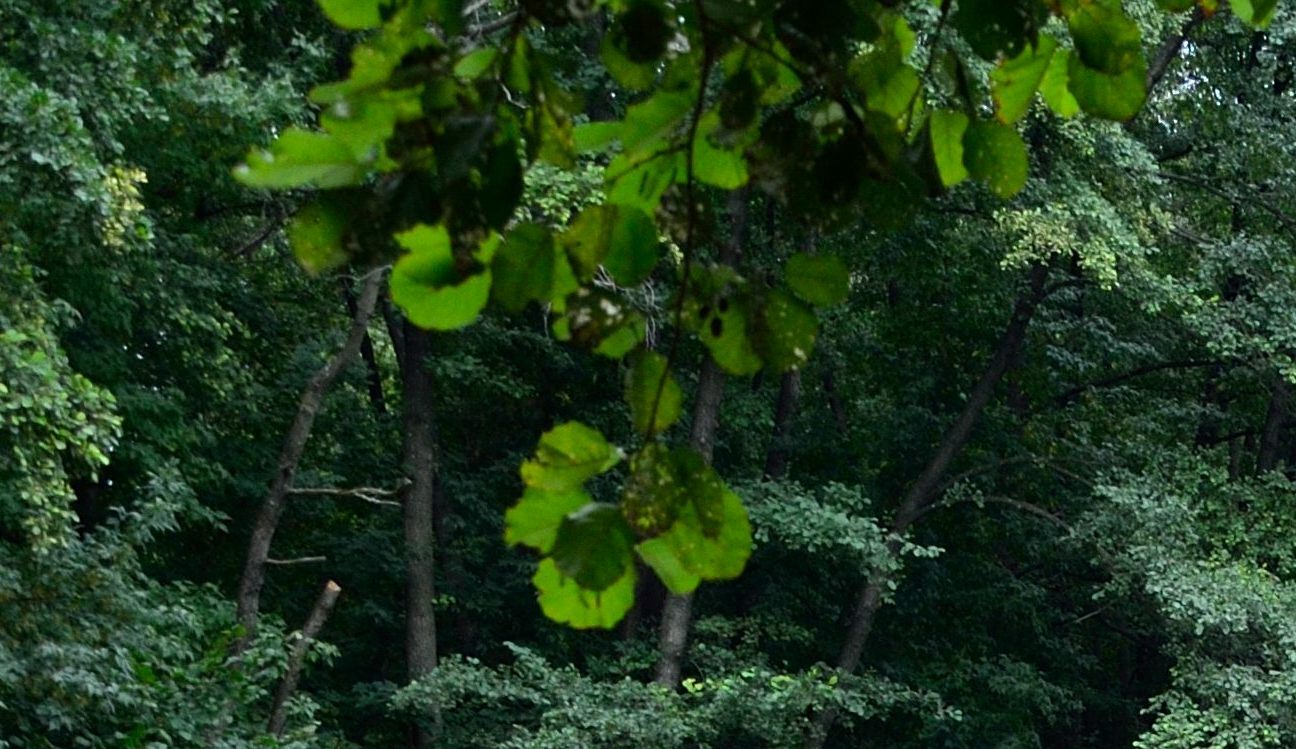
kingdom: Plantae
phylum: Tracheophyta
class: Magnoliopsida
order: Fagales
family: Betulaceae
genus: Alnus
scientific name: Alnus glutinosa
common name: Black alder
